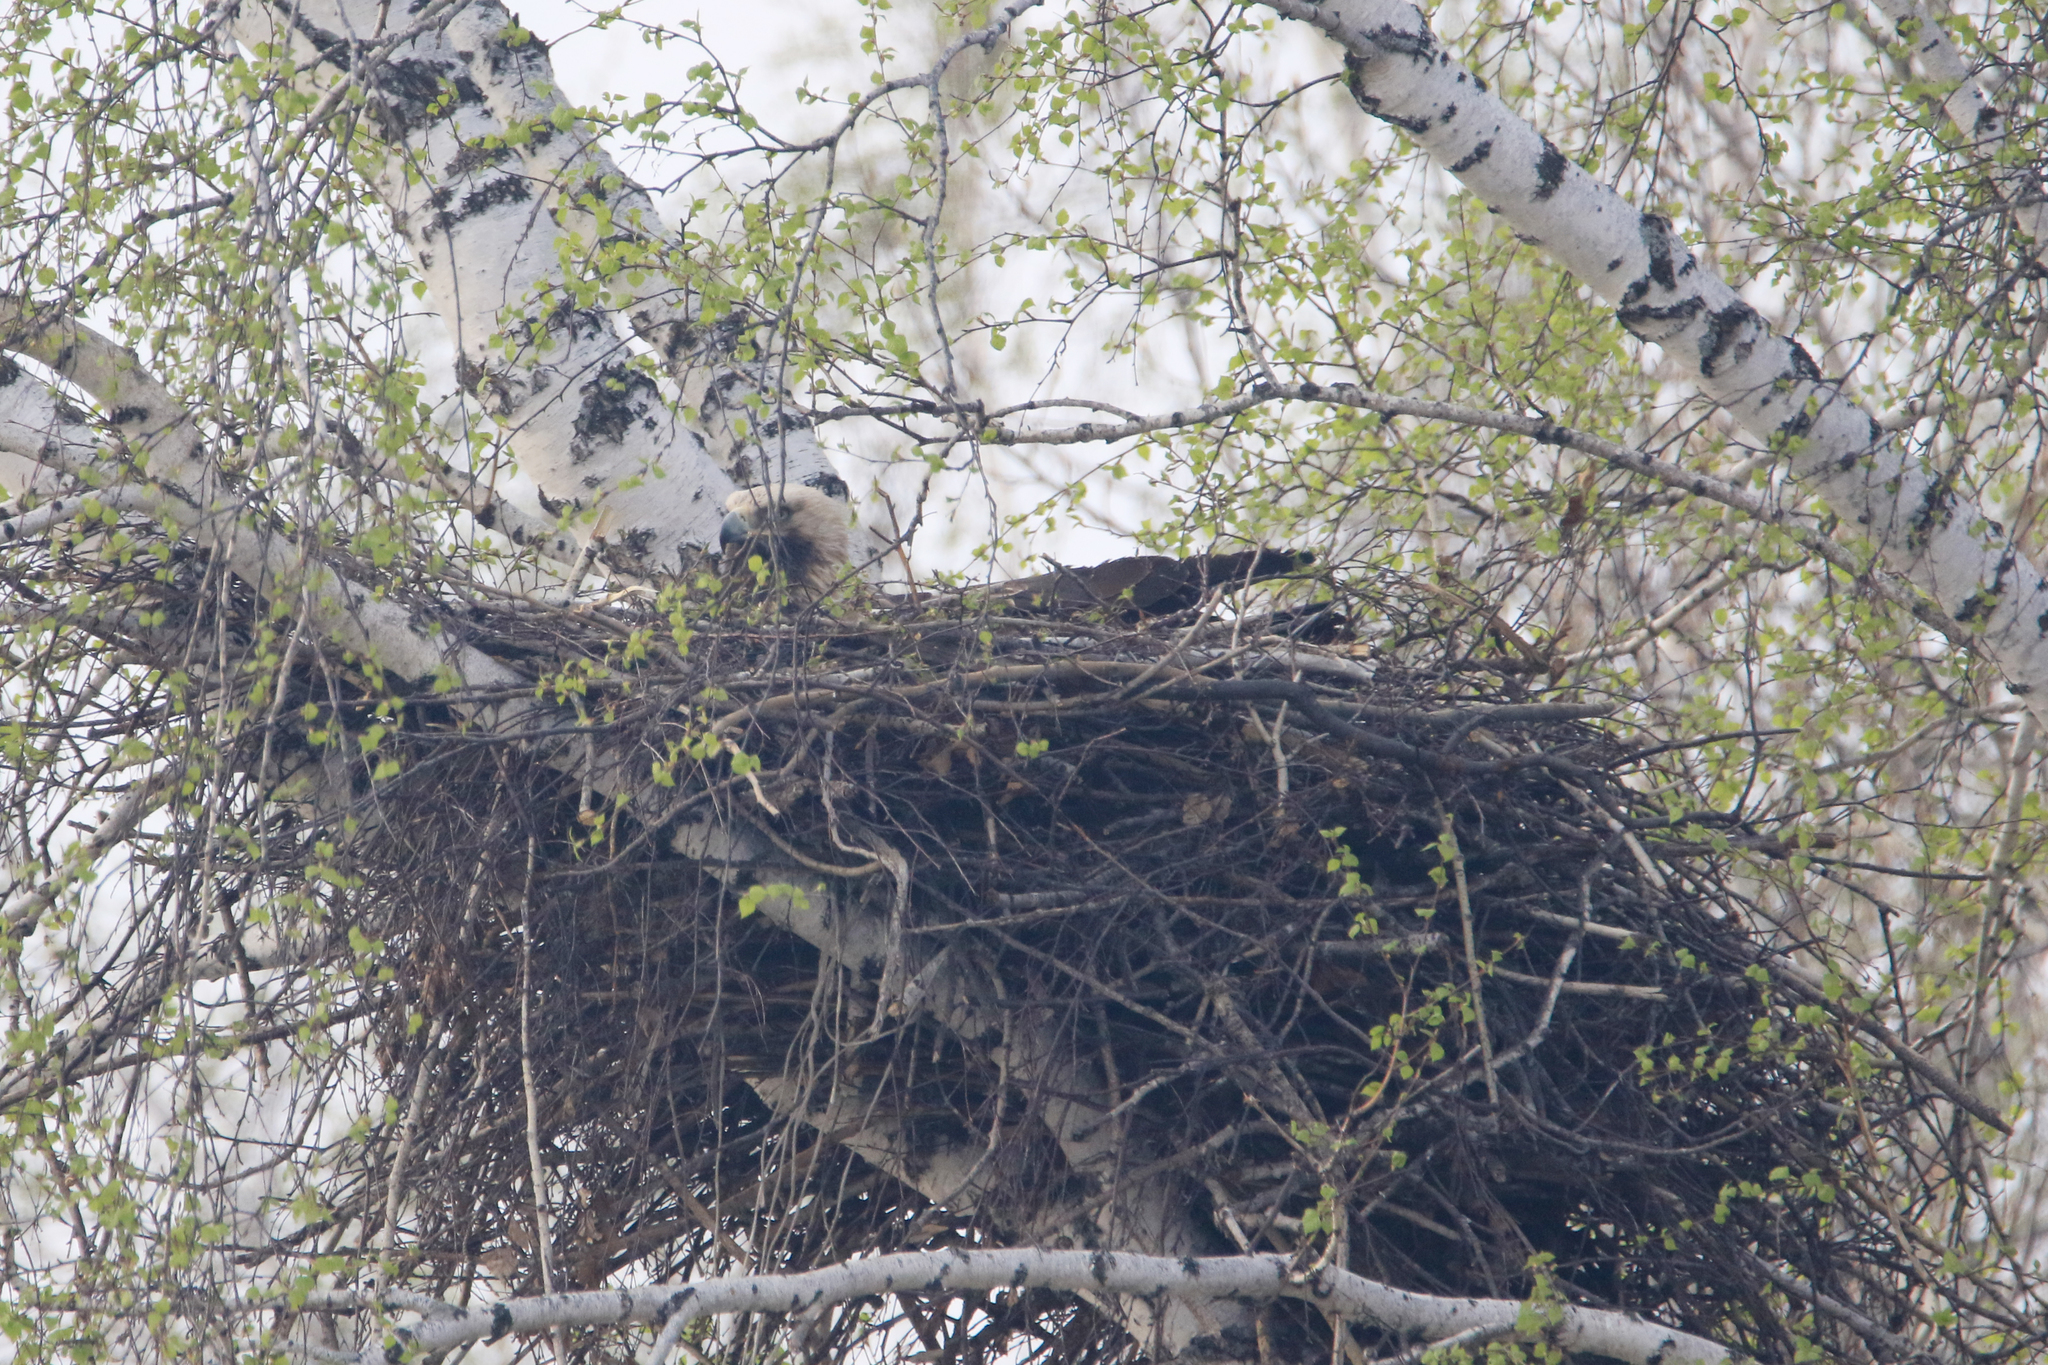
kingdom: Animalia
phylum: Chordata
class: Aves
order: Accipitriformes
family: Accipitridae
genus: Aquila
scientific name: Aquila heliaca
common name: Eastern imperial eagle
